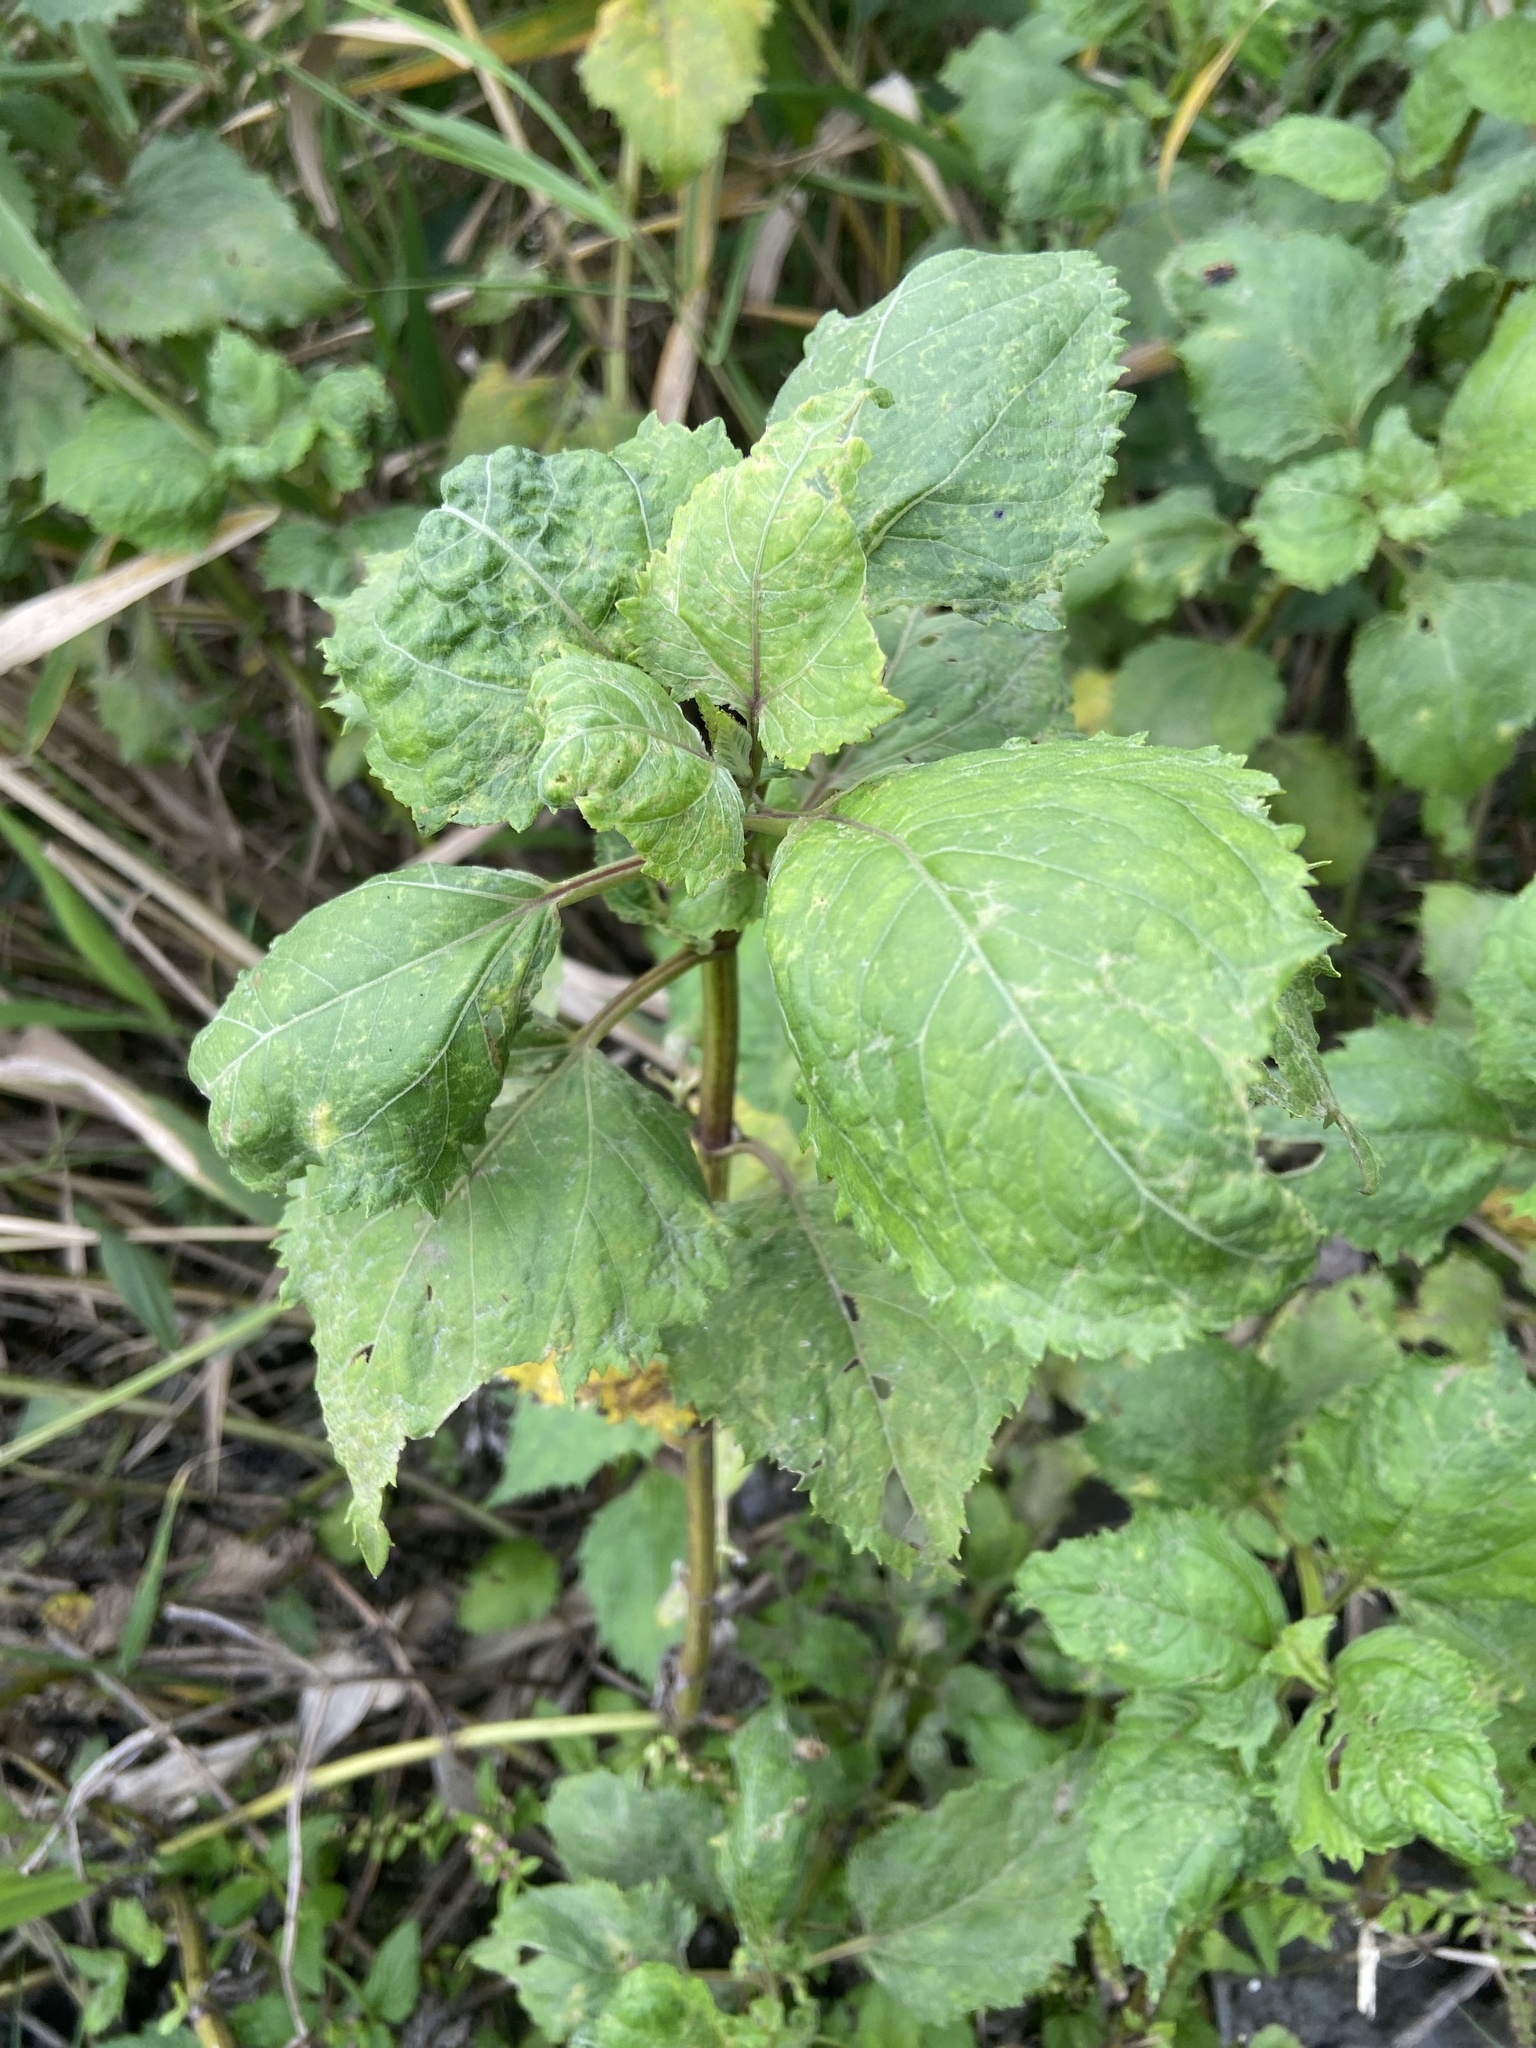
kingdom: Plantae
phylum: Tracheophyta
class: Magnoliopsida
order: Asterales
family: Asteraceae
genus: Wollastonia
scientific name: Wollastonia biflora
